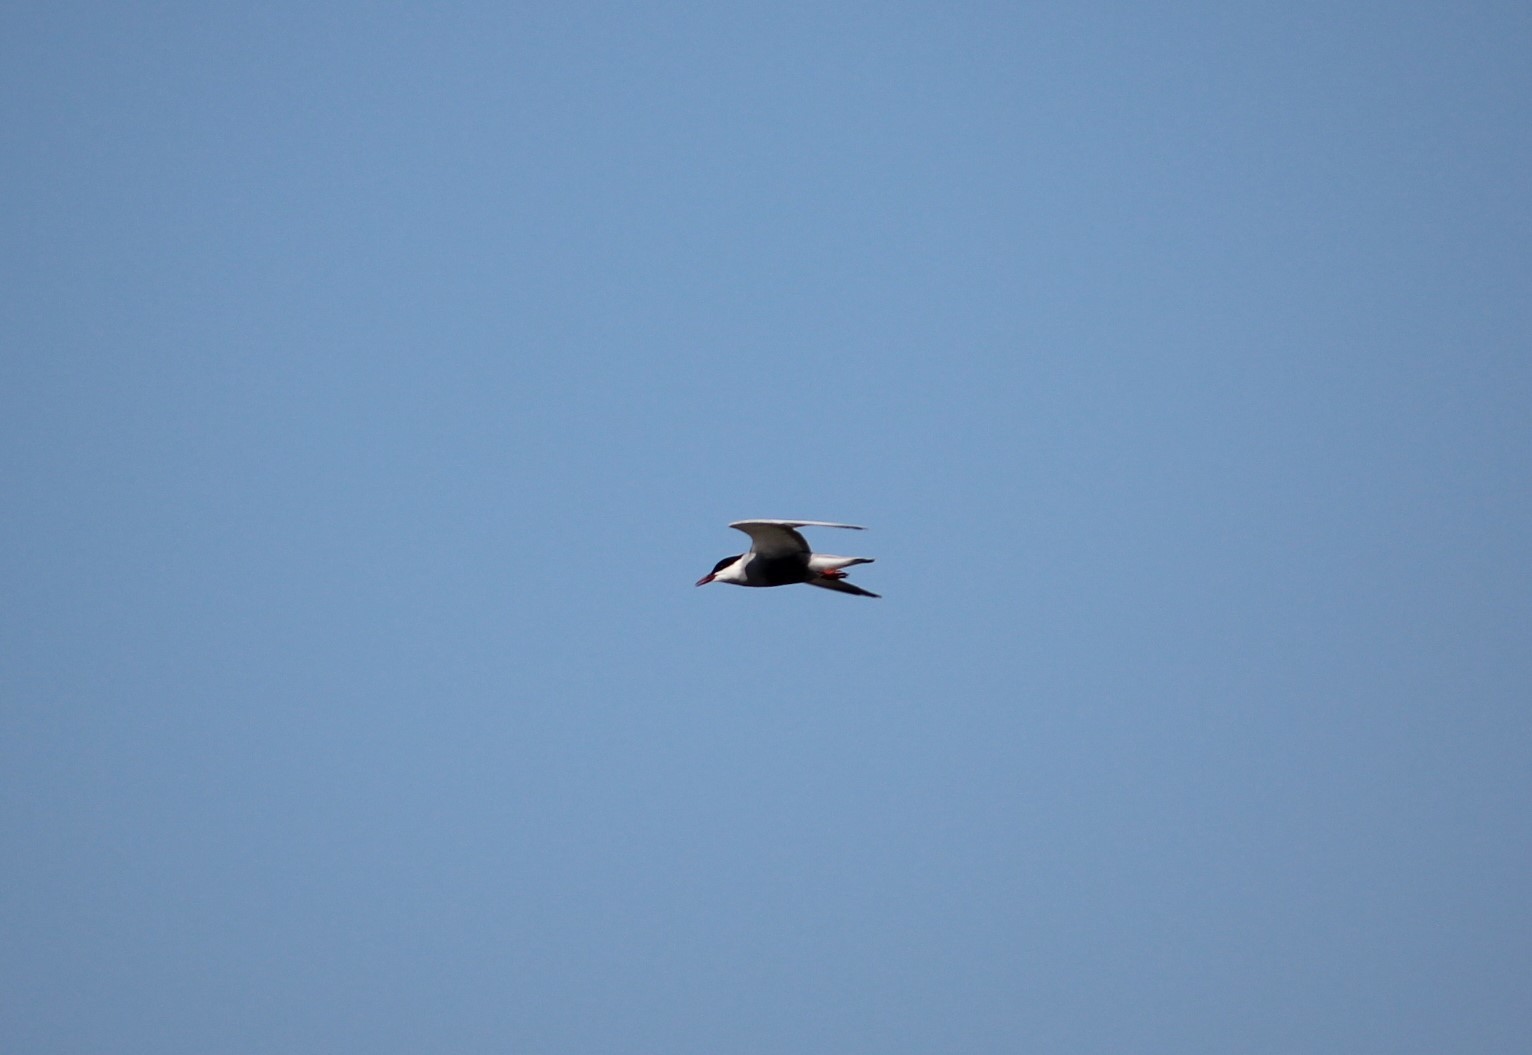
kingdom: Animalia
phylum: Chordata
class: Aves
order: Charadriiformes
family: Laridae
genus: Chlidonias
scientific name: Chlidonias hybrida
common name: Whiskered tern
